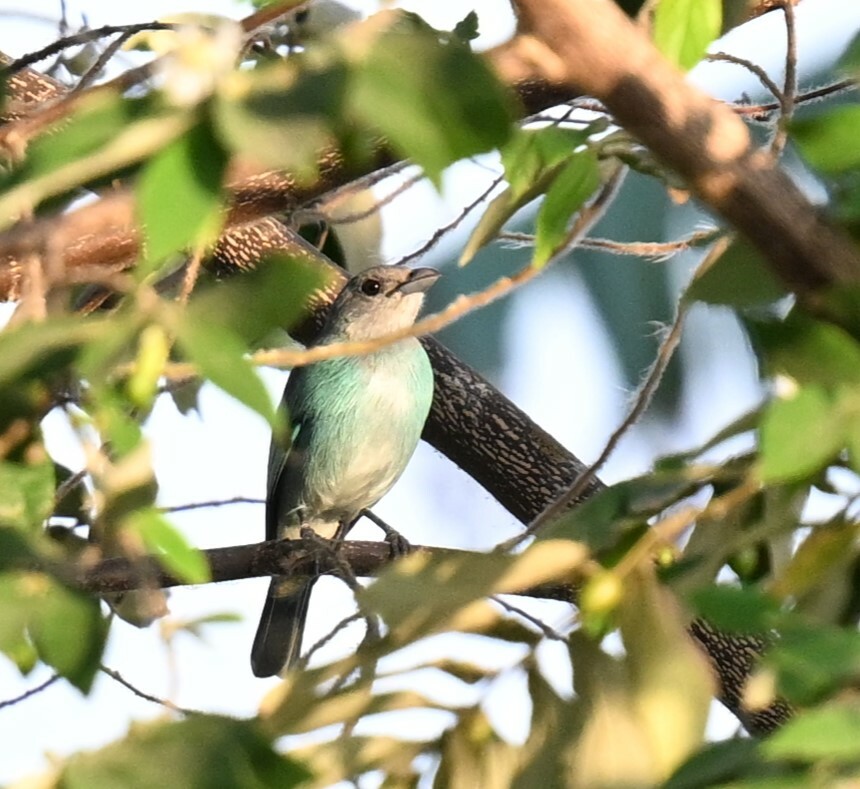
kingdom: Animalia
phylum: Chordata
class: Aves
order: Passeriformes
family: Thraupidae
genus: Thraupis
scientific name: Thraupis glaucocolpa
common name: Glaucous tanager
